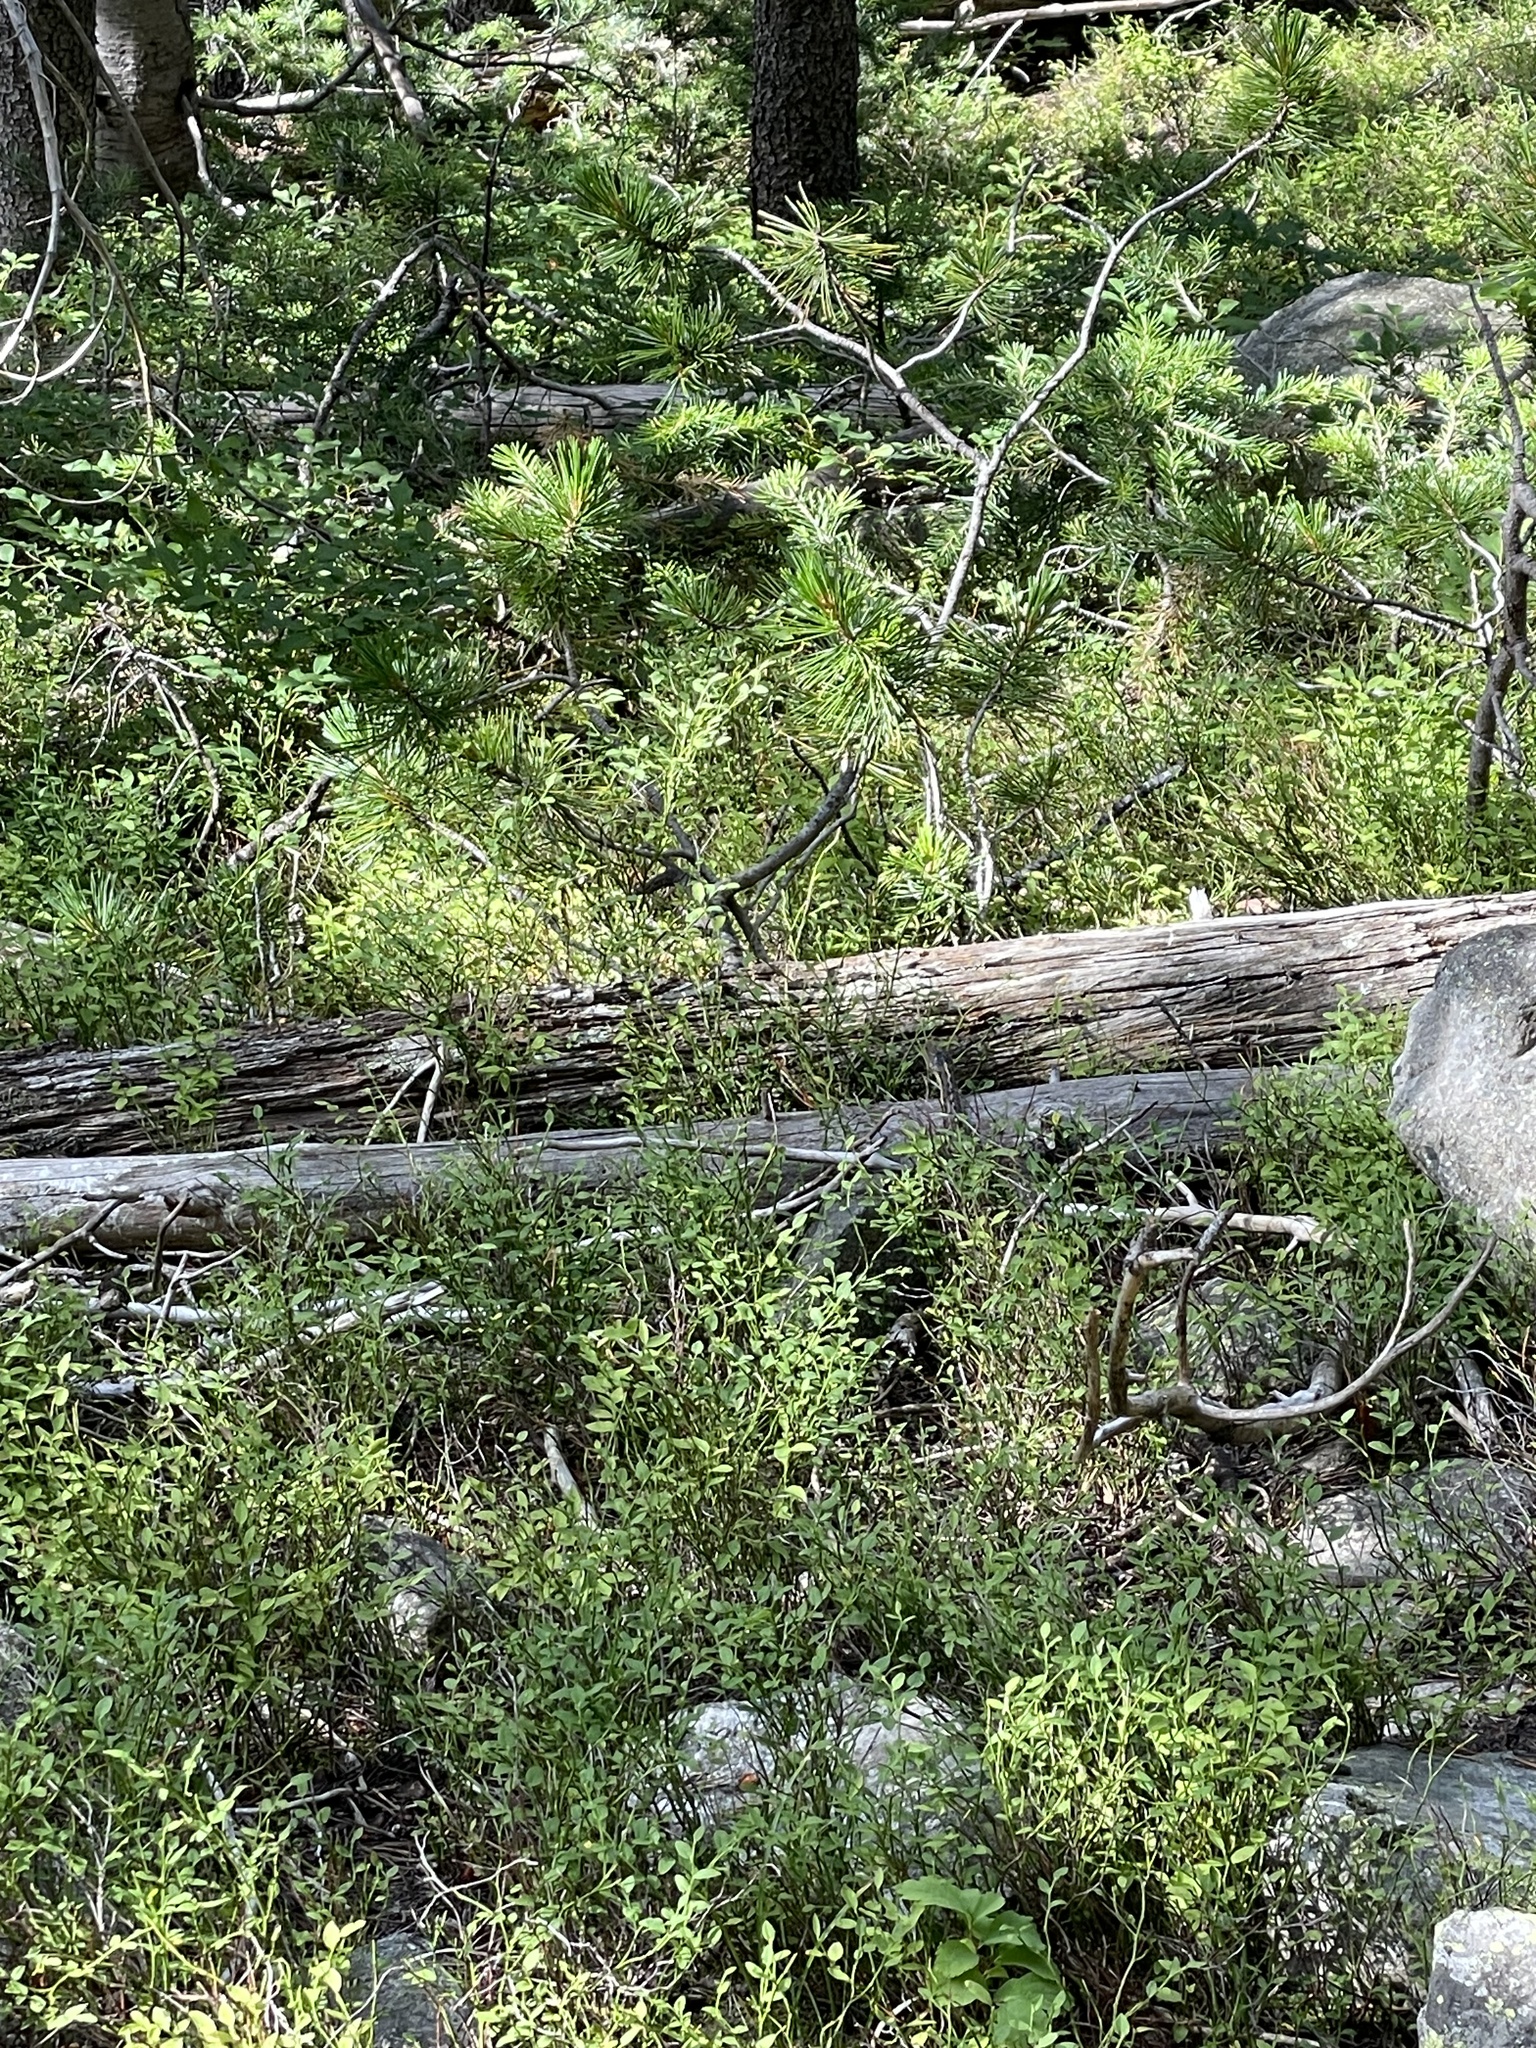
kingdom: Animalia
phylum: Chordata
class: Squamata
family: Colubridae
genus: Thamnophis
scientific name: Thamnophis elegans
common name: Western terrestrial garter snake
